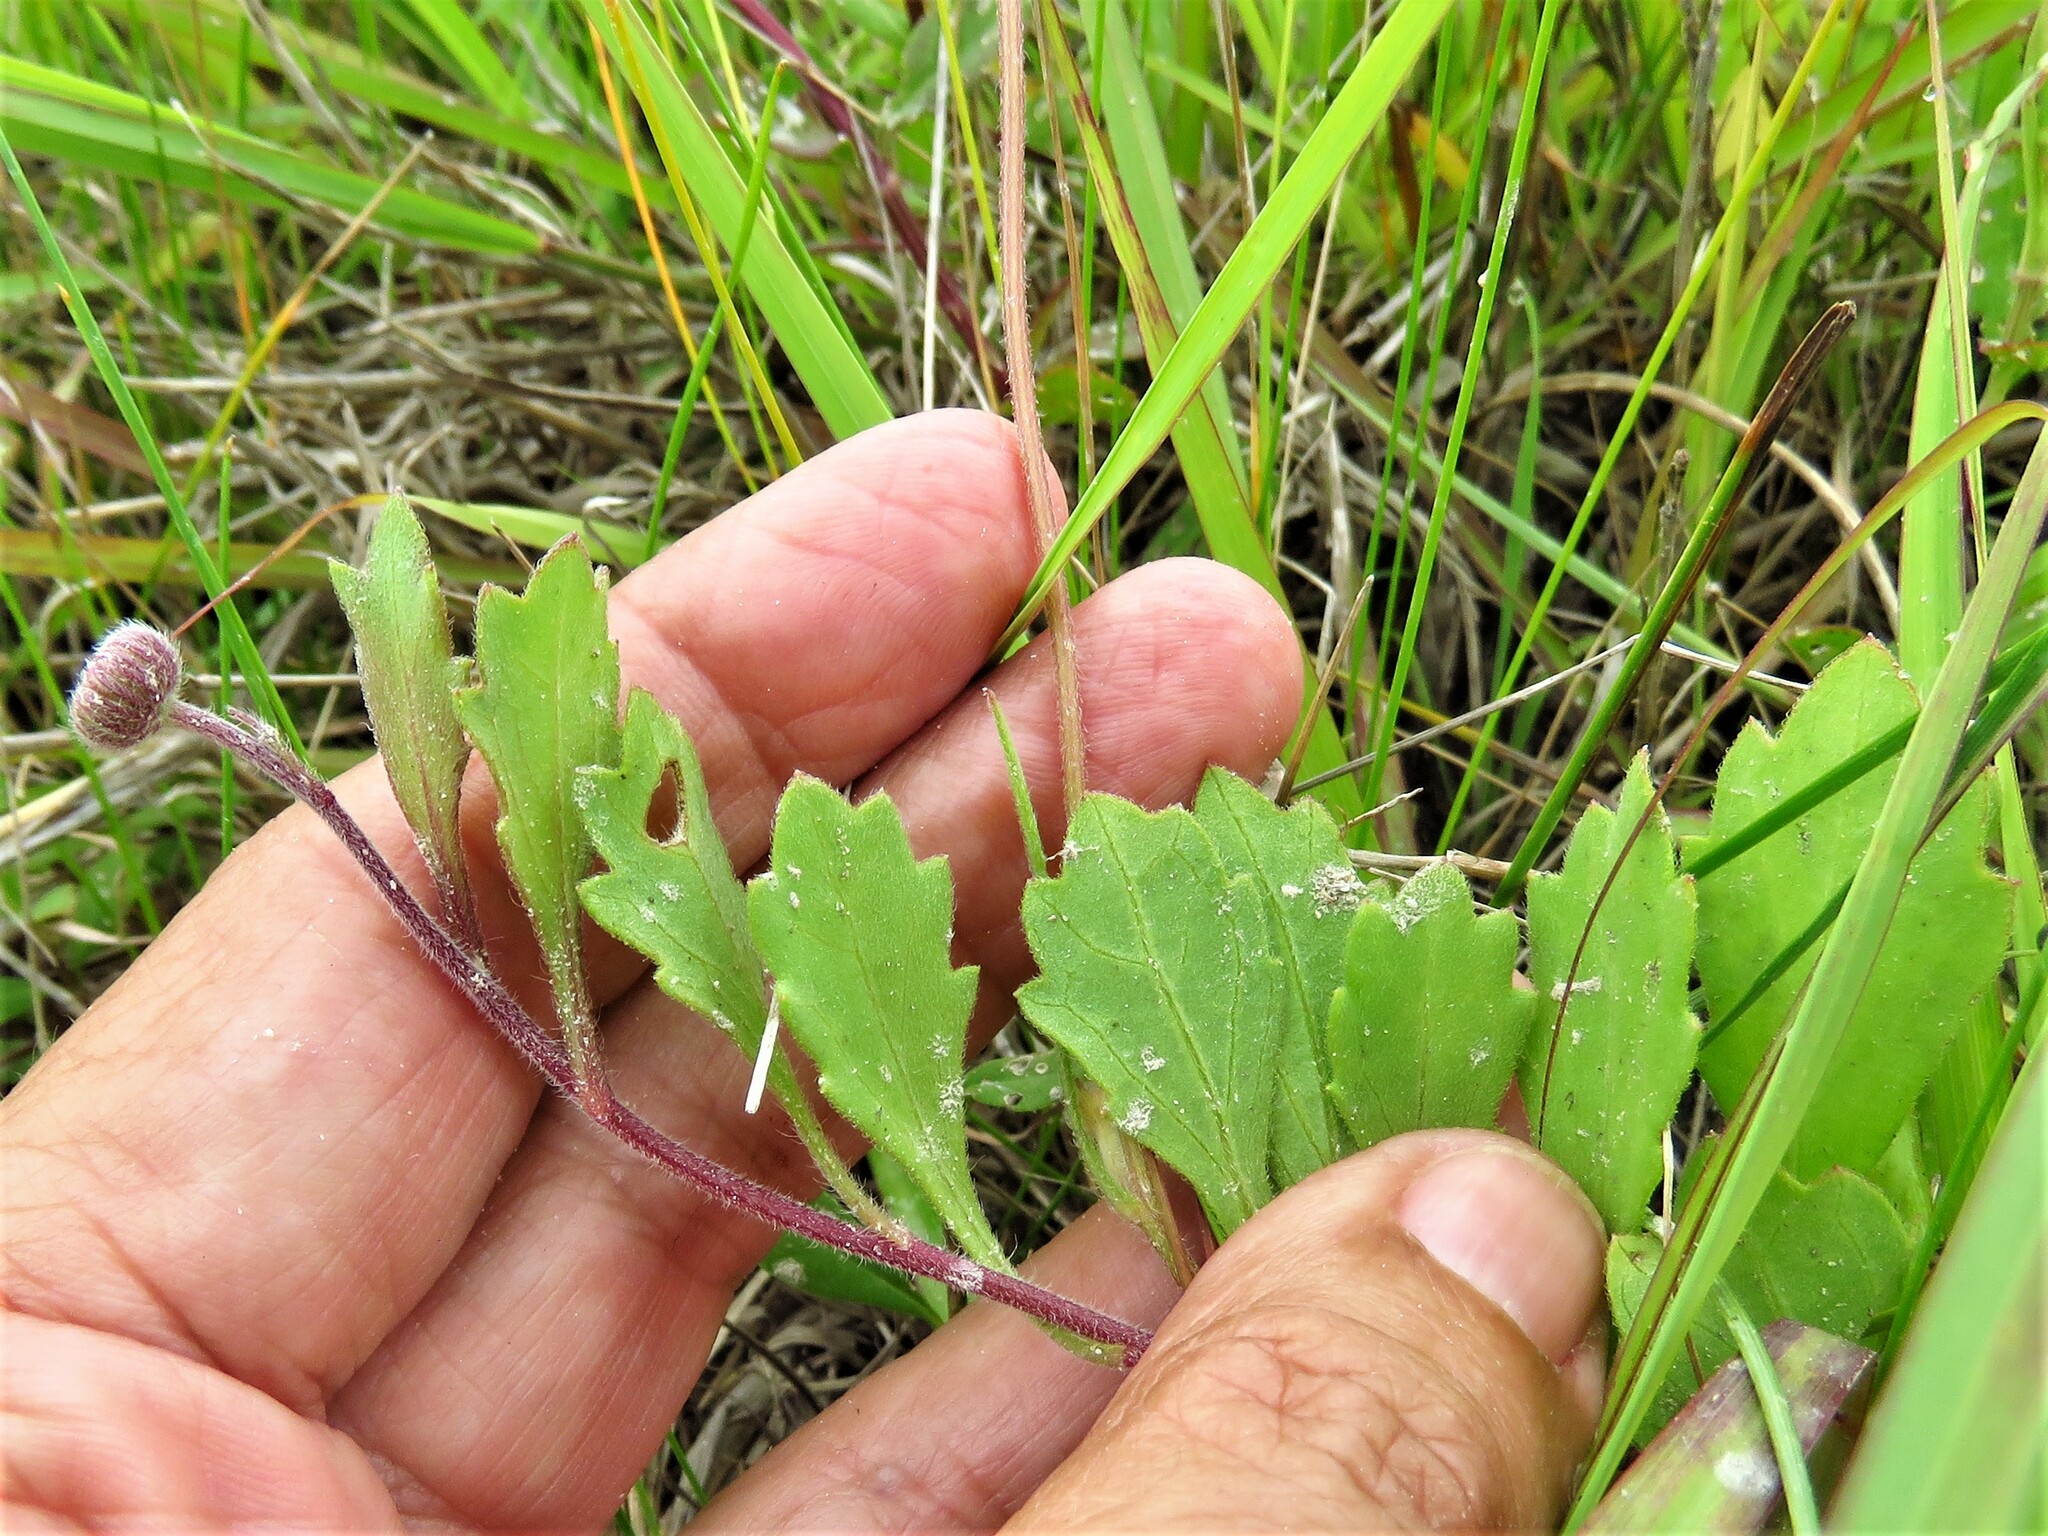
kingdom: Plantae
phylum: Tracheophyta
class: Magnoliopsida
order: Asterales
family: Asteraceae
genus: Erigeron
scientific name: Erigeron procumbens
